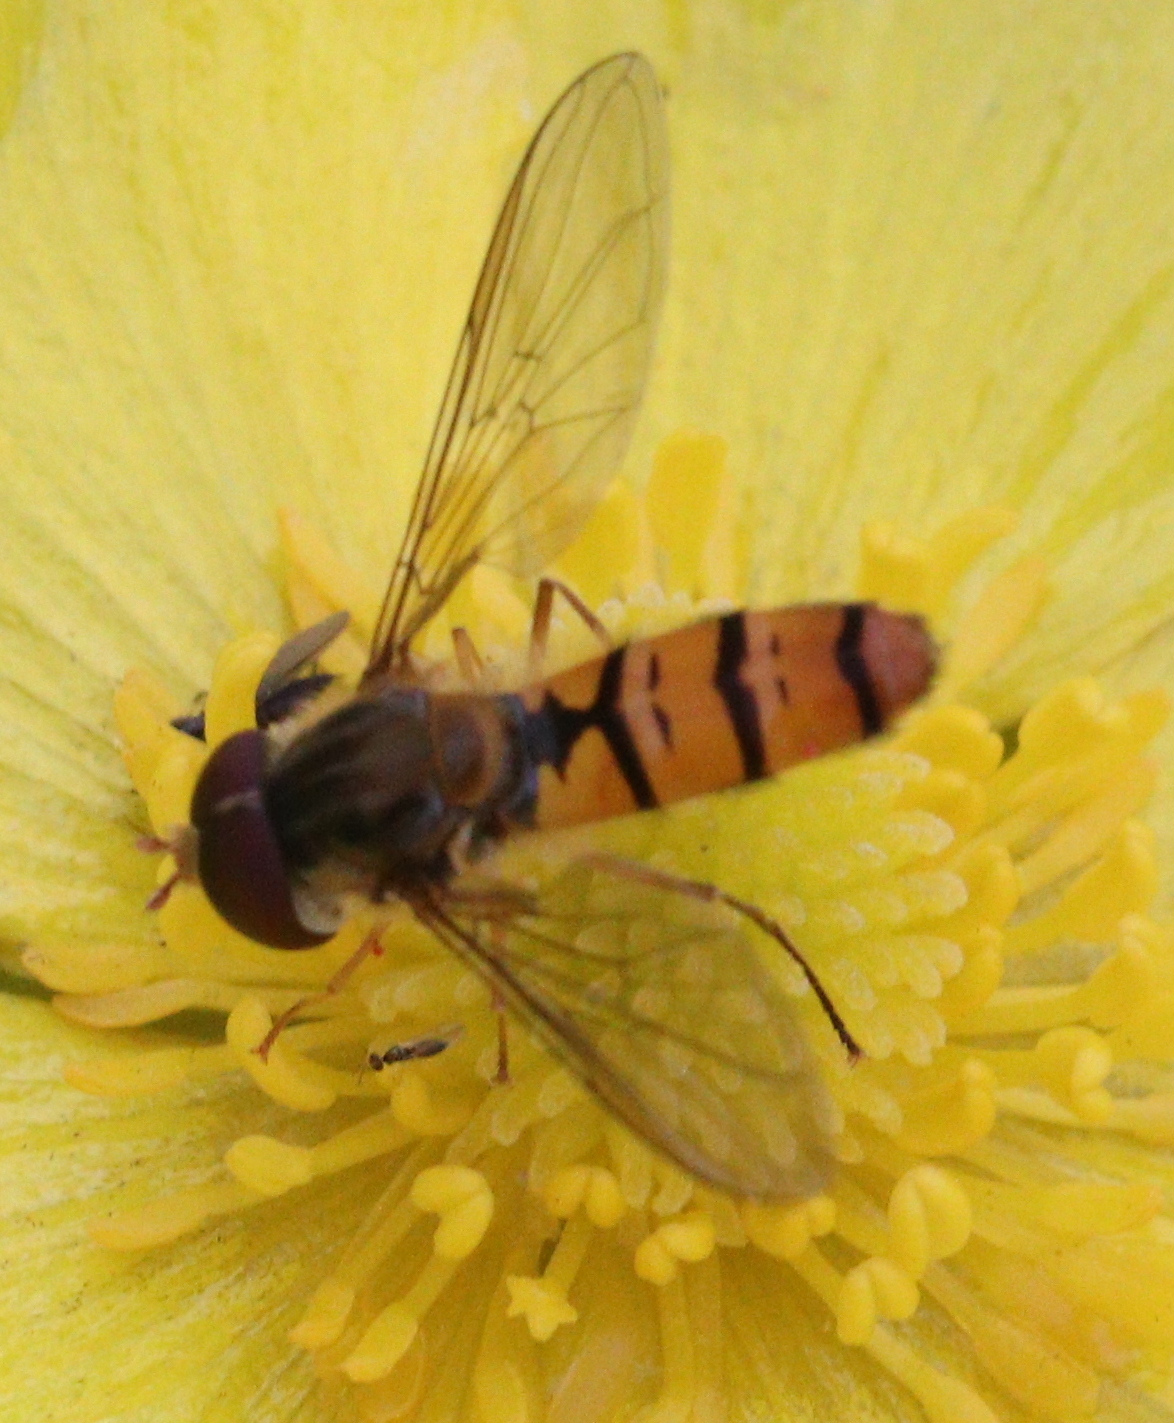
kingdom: Animalia
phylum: Arthropoda
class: Insecta
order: Diptera
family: Syrphidae
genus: Episyrphus
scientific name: Episyrphus balteatus
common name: Marmalade hoverfly
